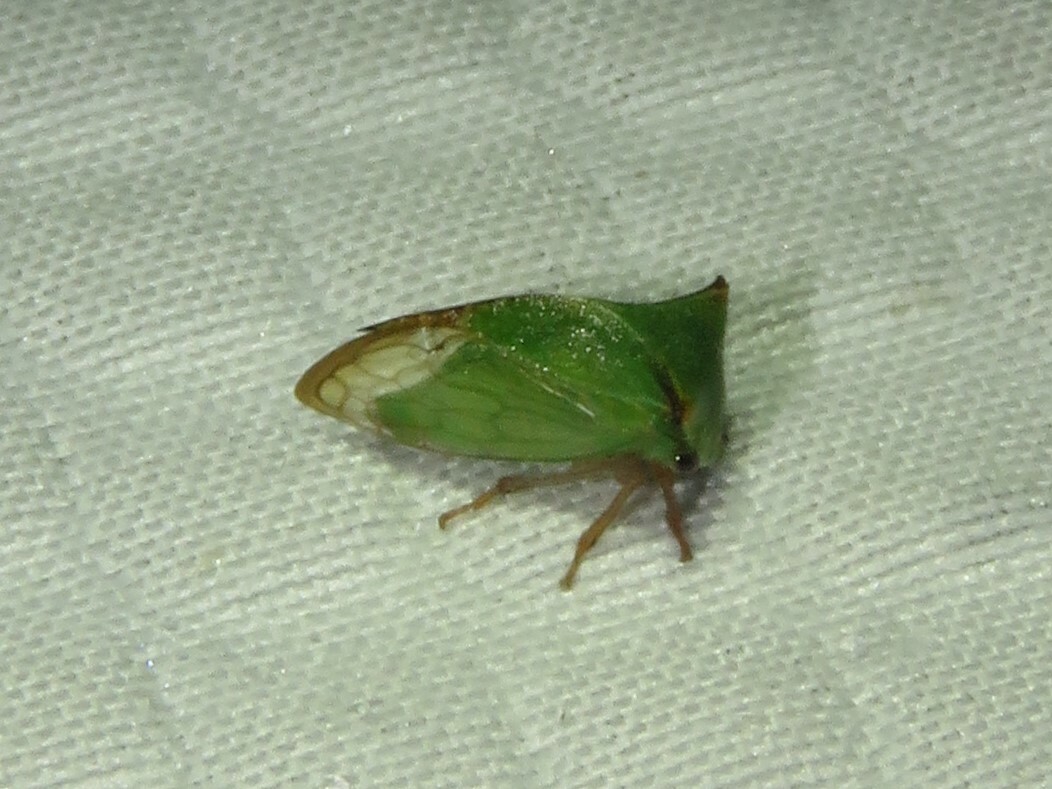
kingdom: Animalia
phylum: Arthropoda
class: Insecta
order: Hemiptera
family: Membracidae
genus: Stictocephala
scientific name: Stictocephala bisonia
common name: American buffalo treehopper
